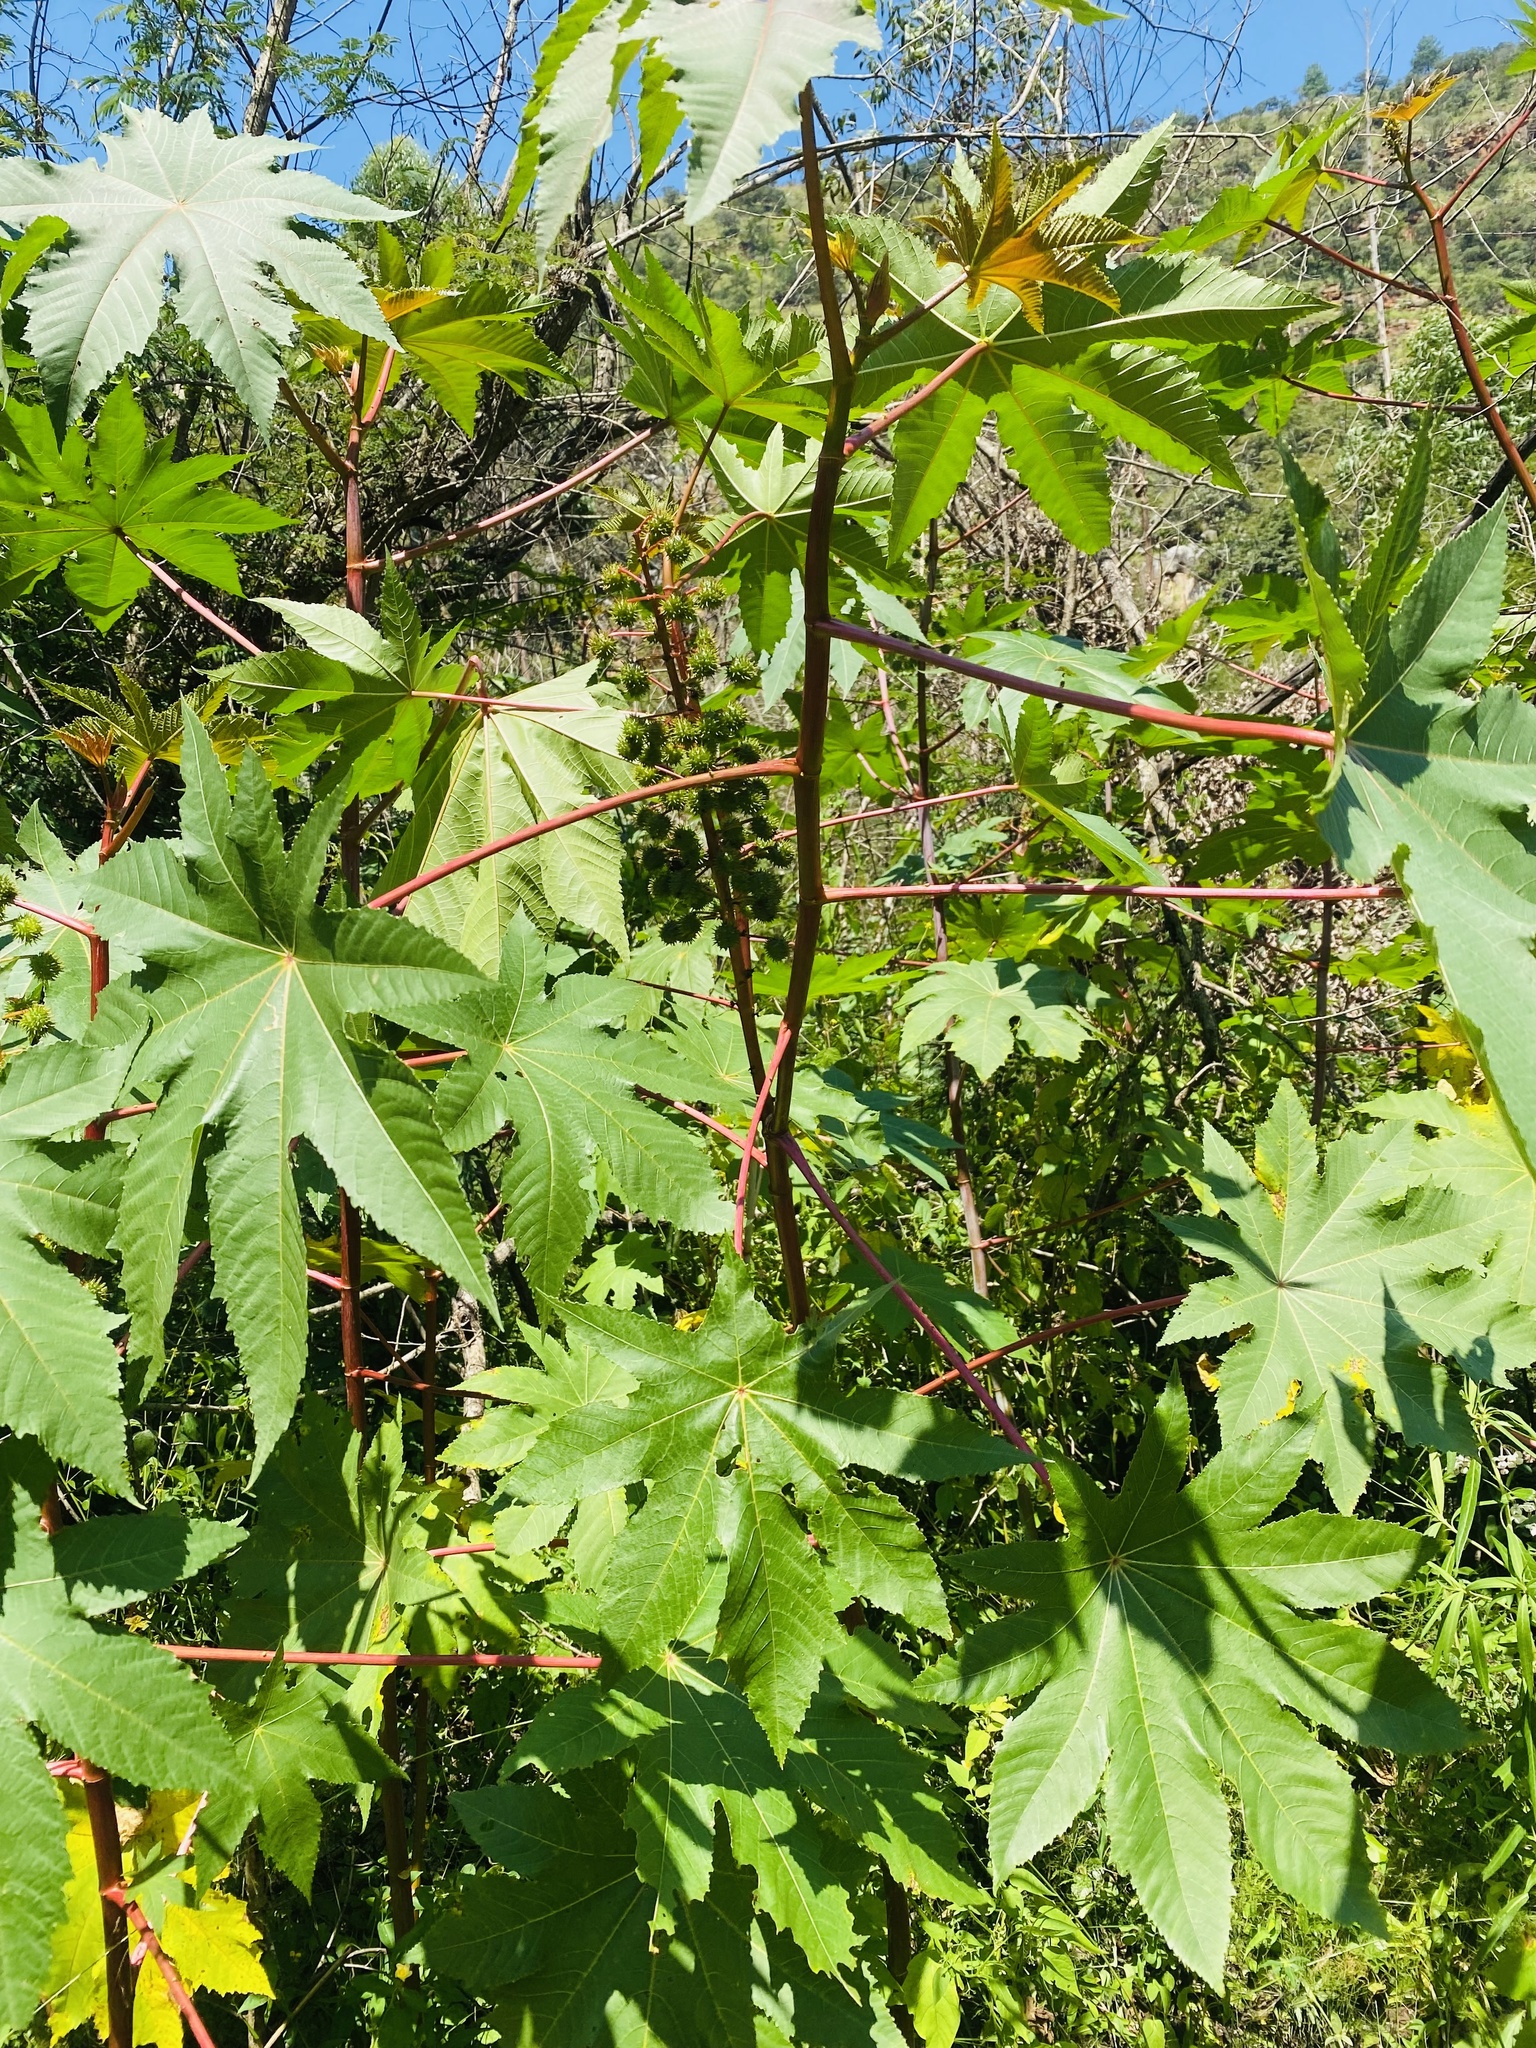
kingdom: Plantae
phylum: Tracheophyta
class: Magnoliopsida
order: Malpighiales
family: Euphorbiaceae
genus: Ricinus
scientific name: Ricinus communis
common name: Castor-oil-plant
